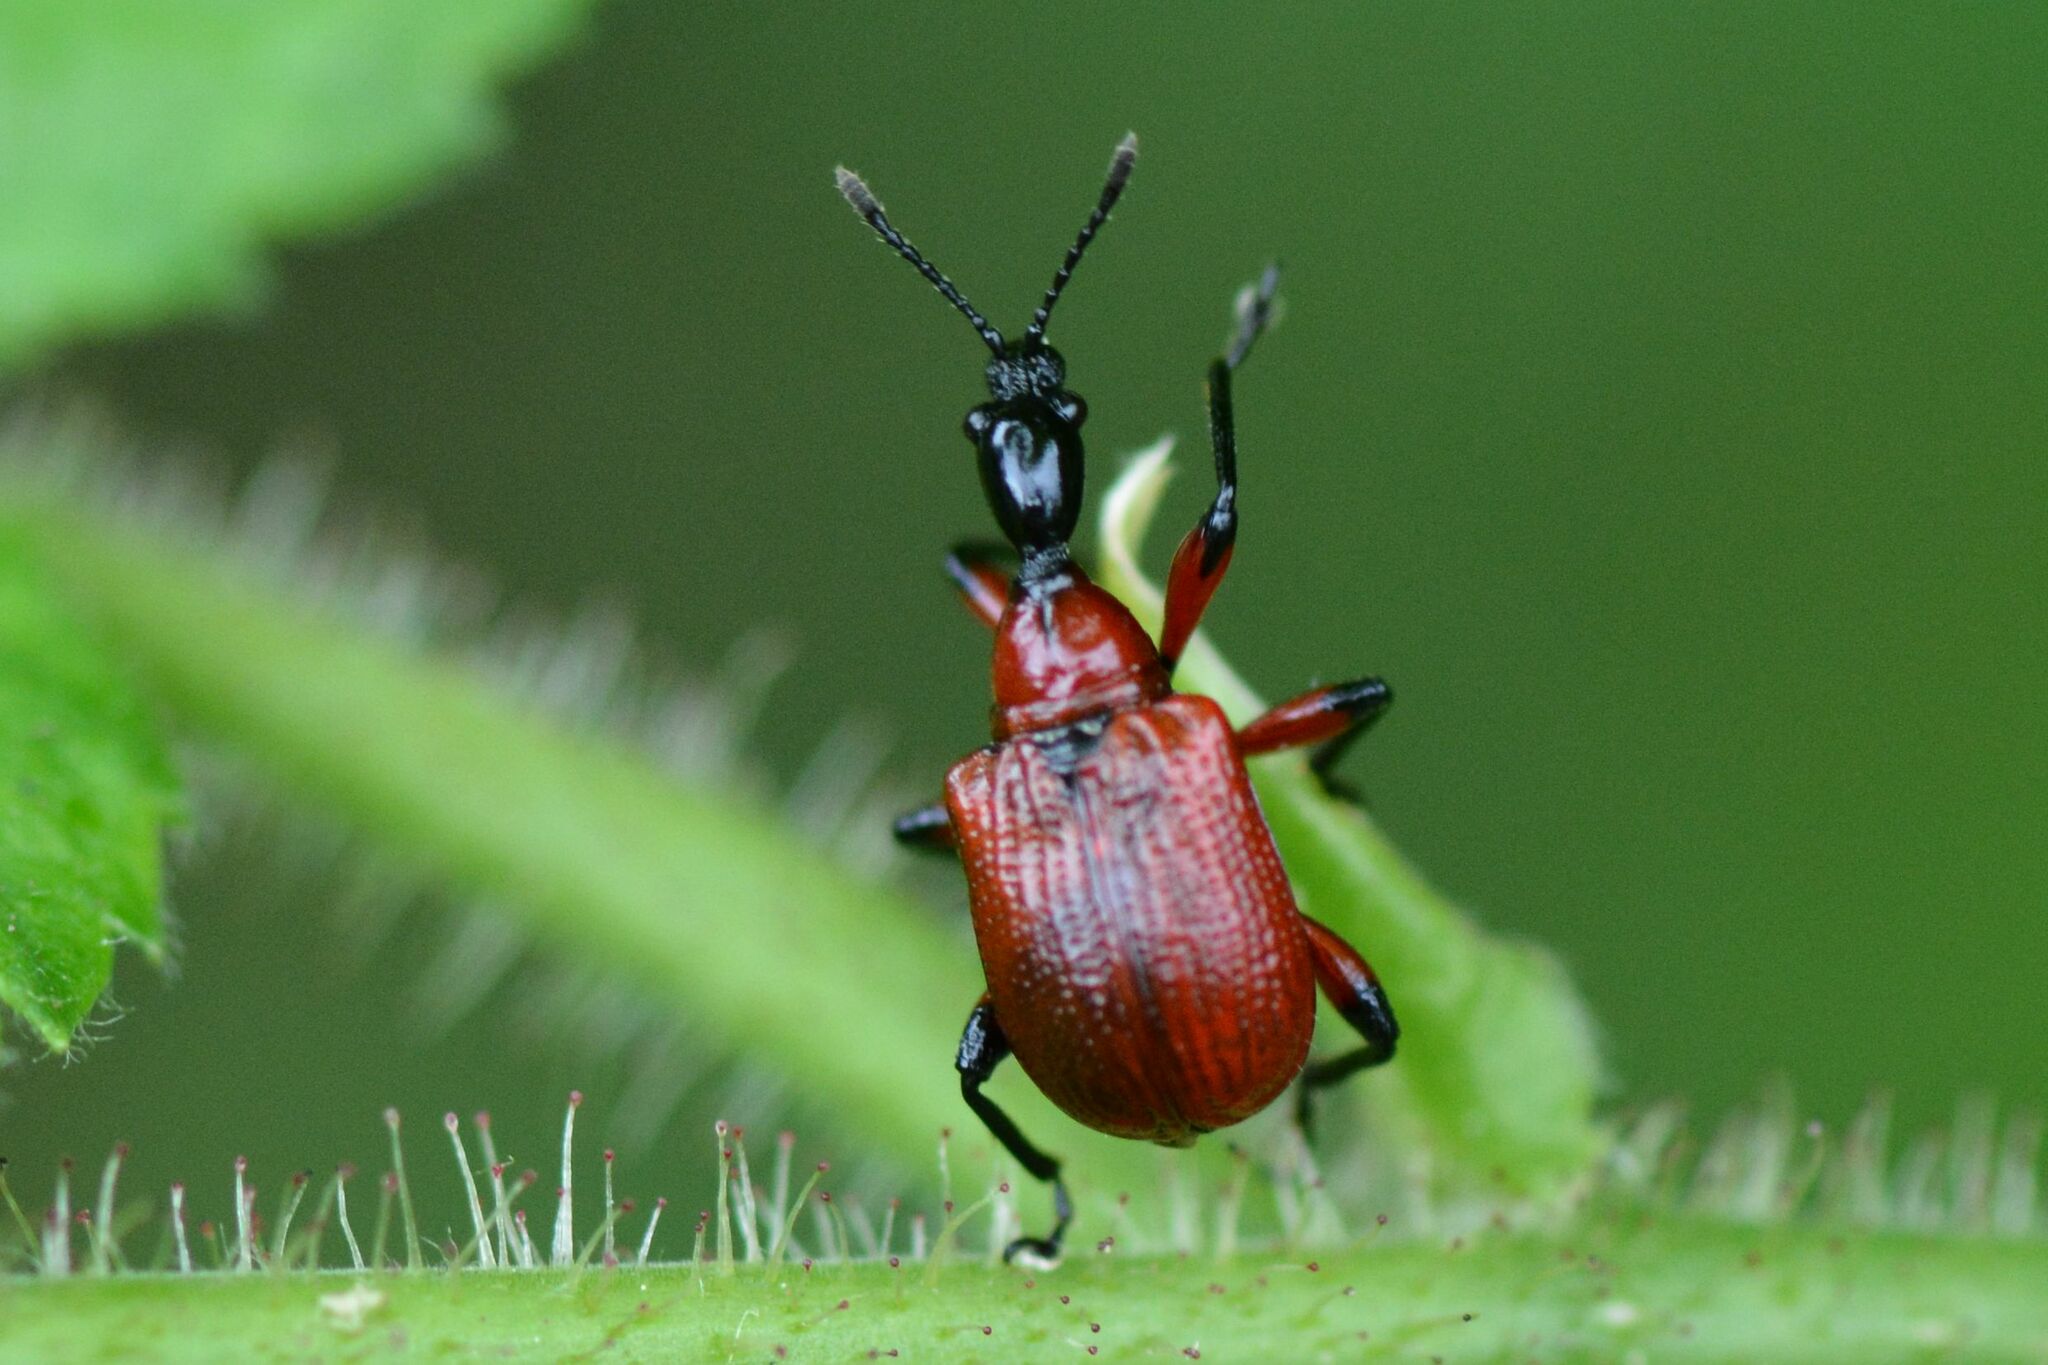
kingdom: Animalia
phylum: Arthropoda
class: Insecta
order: Coleoptera
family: Attelabidae
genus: Apoderus
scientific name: Apoderus coryli
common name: Hazel leaf roller
